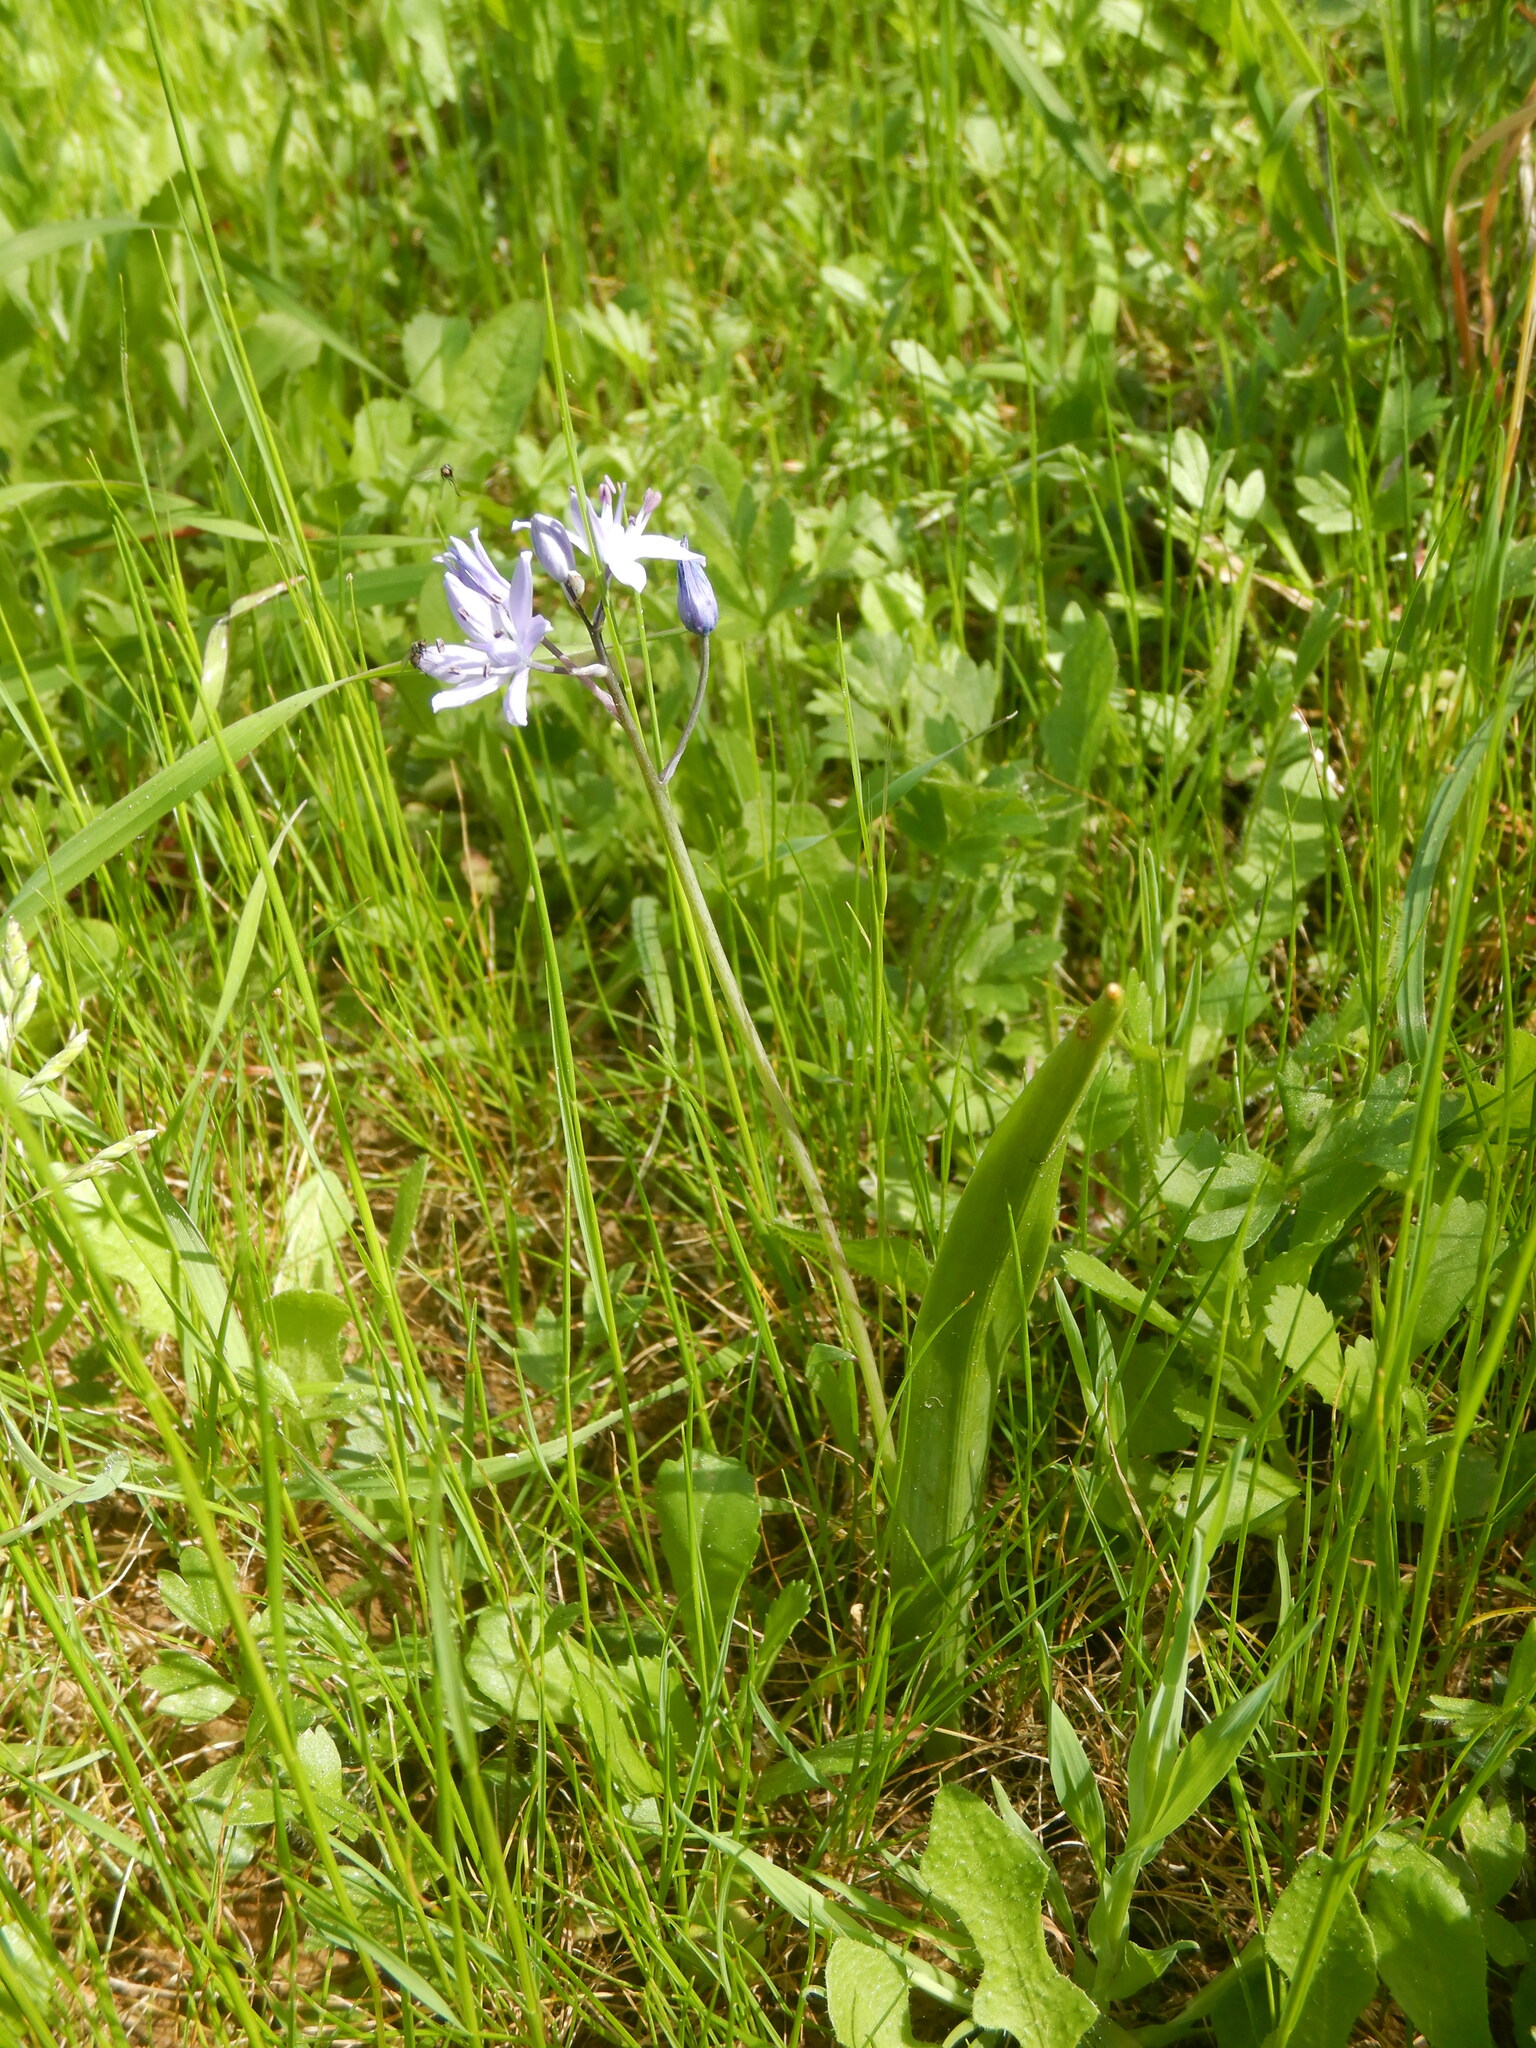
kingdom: Plantae
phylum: Tracheophyta
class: Liliopsida
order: Asparagales
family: Asparagaceae
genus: Scilla
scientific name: Scilla monophyllos
